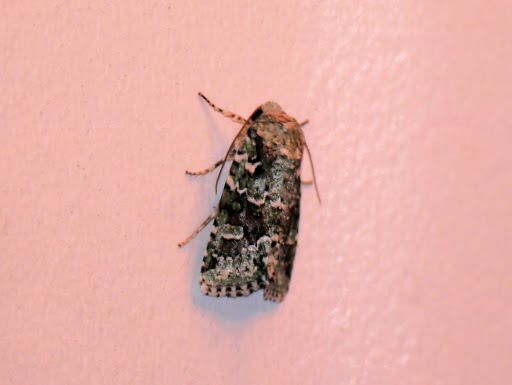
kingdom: Animalia
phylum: Arthropoda
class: Insecta
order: Lepidoptera
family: Noctuidae
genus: Lacinipolia
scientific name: Lacinipolia laudabilis
